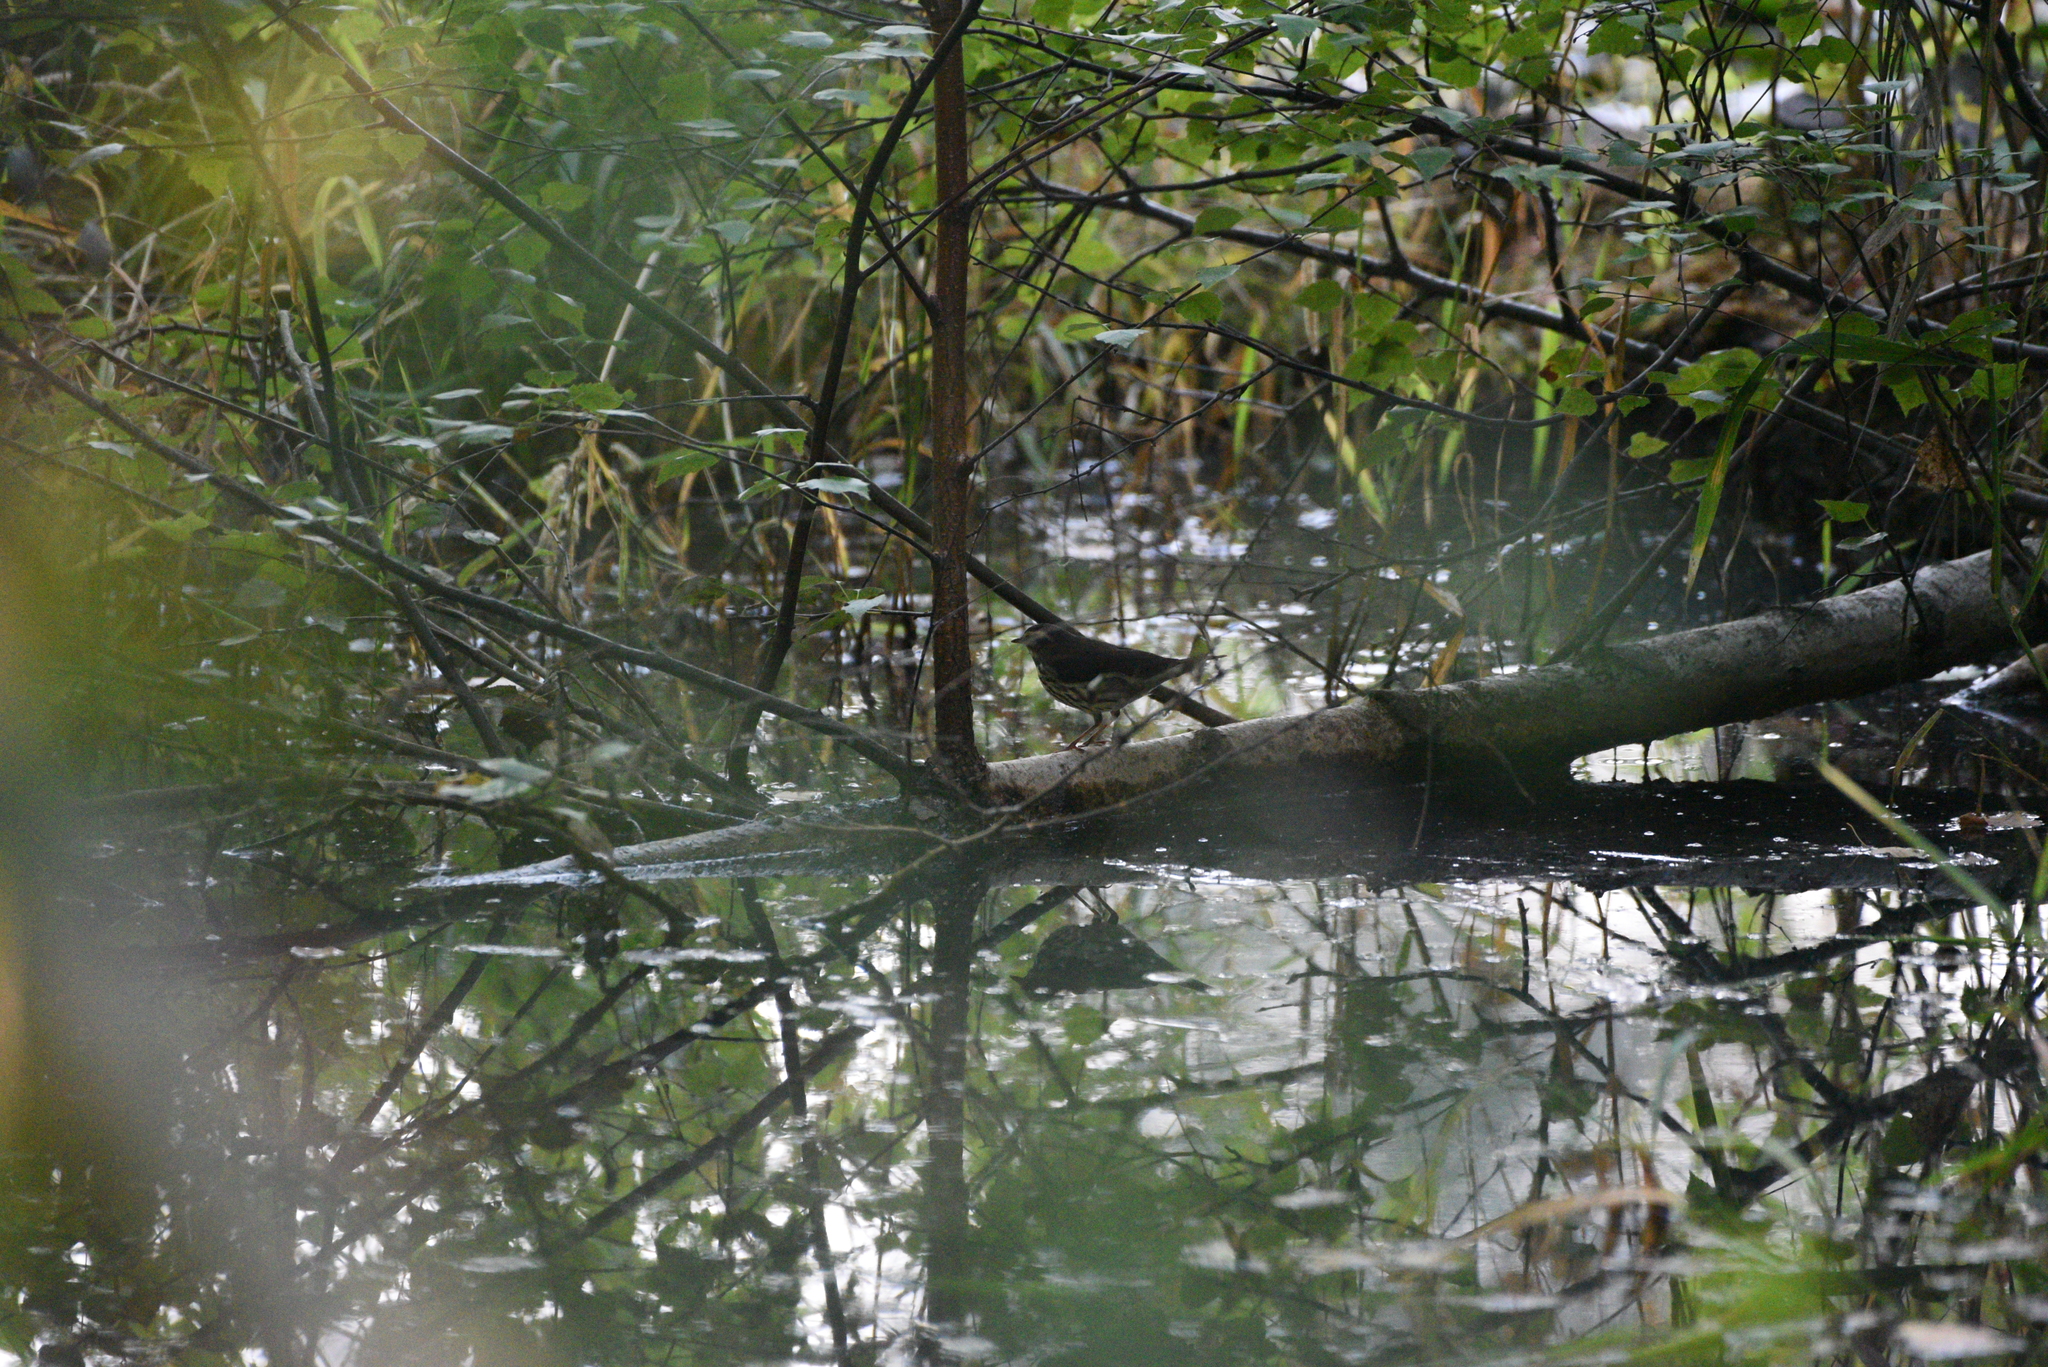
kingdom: Animalia
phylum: Chordata
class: Aves
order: Passeriformes
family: Parulidae
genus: Parkesia
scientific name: Parkesia noveboracensis
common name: Northern waterthrush
